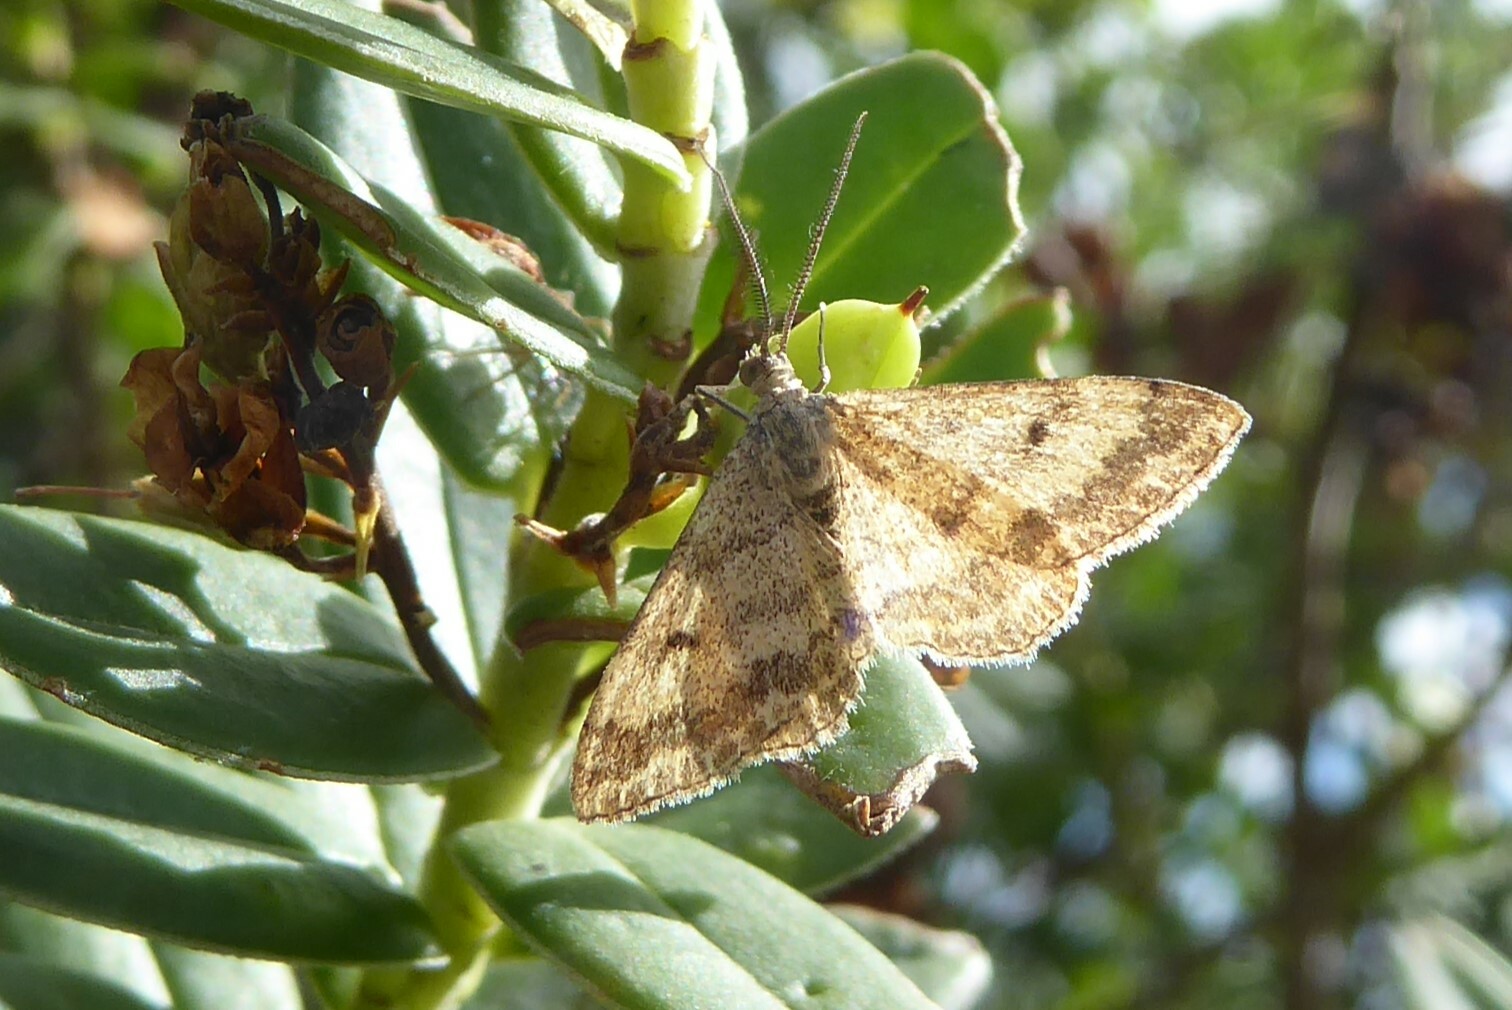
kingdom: Animalia
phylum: Arthropoda
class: Insecta
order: Lepidoptera
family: Geometridae
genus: Scopula
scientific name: Scopula rubraria
